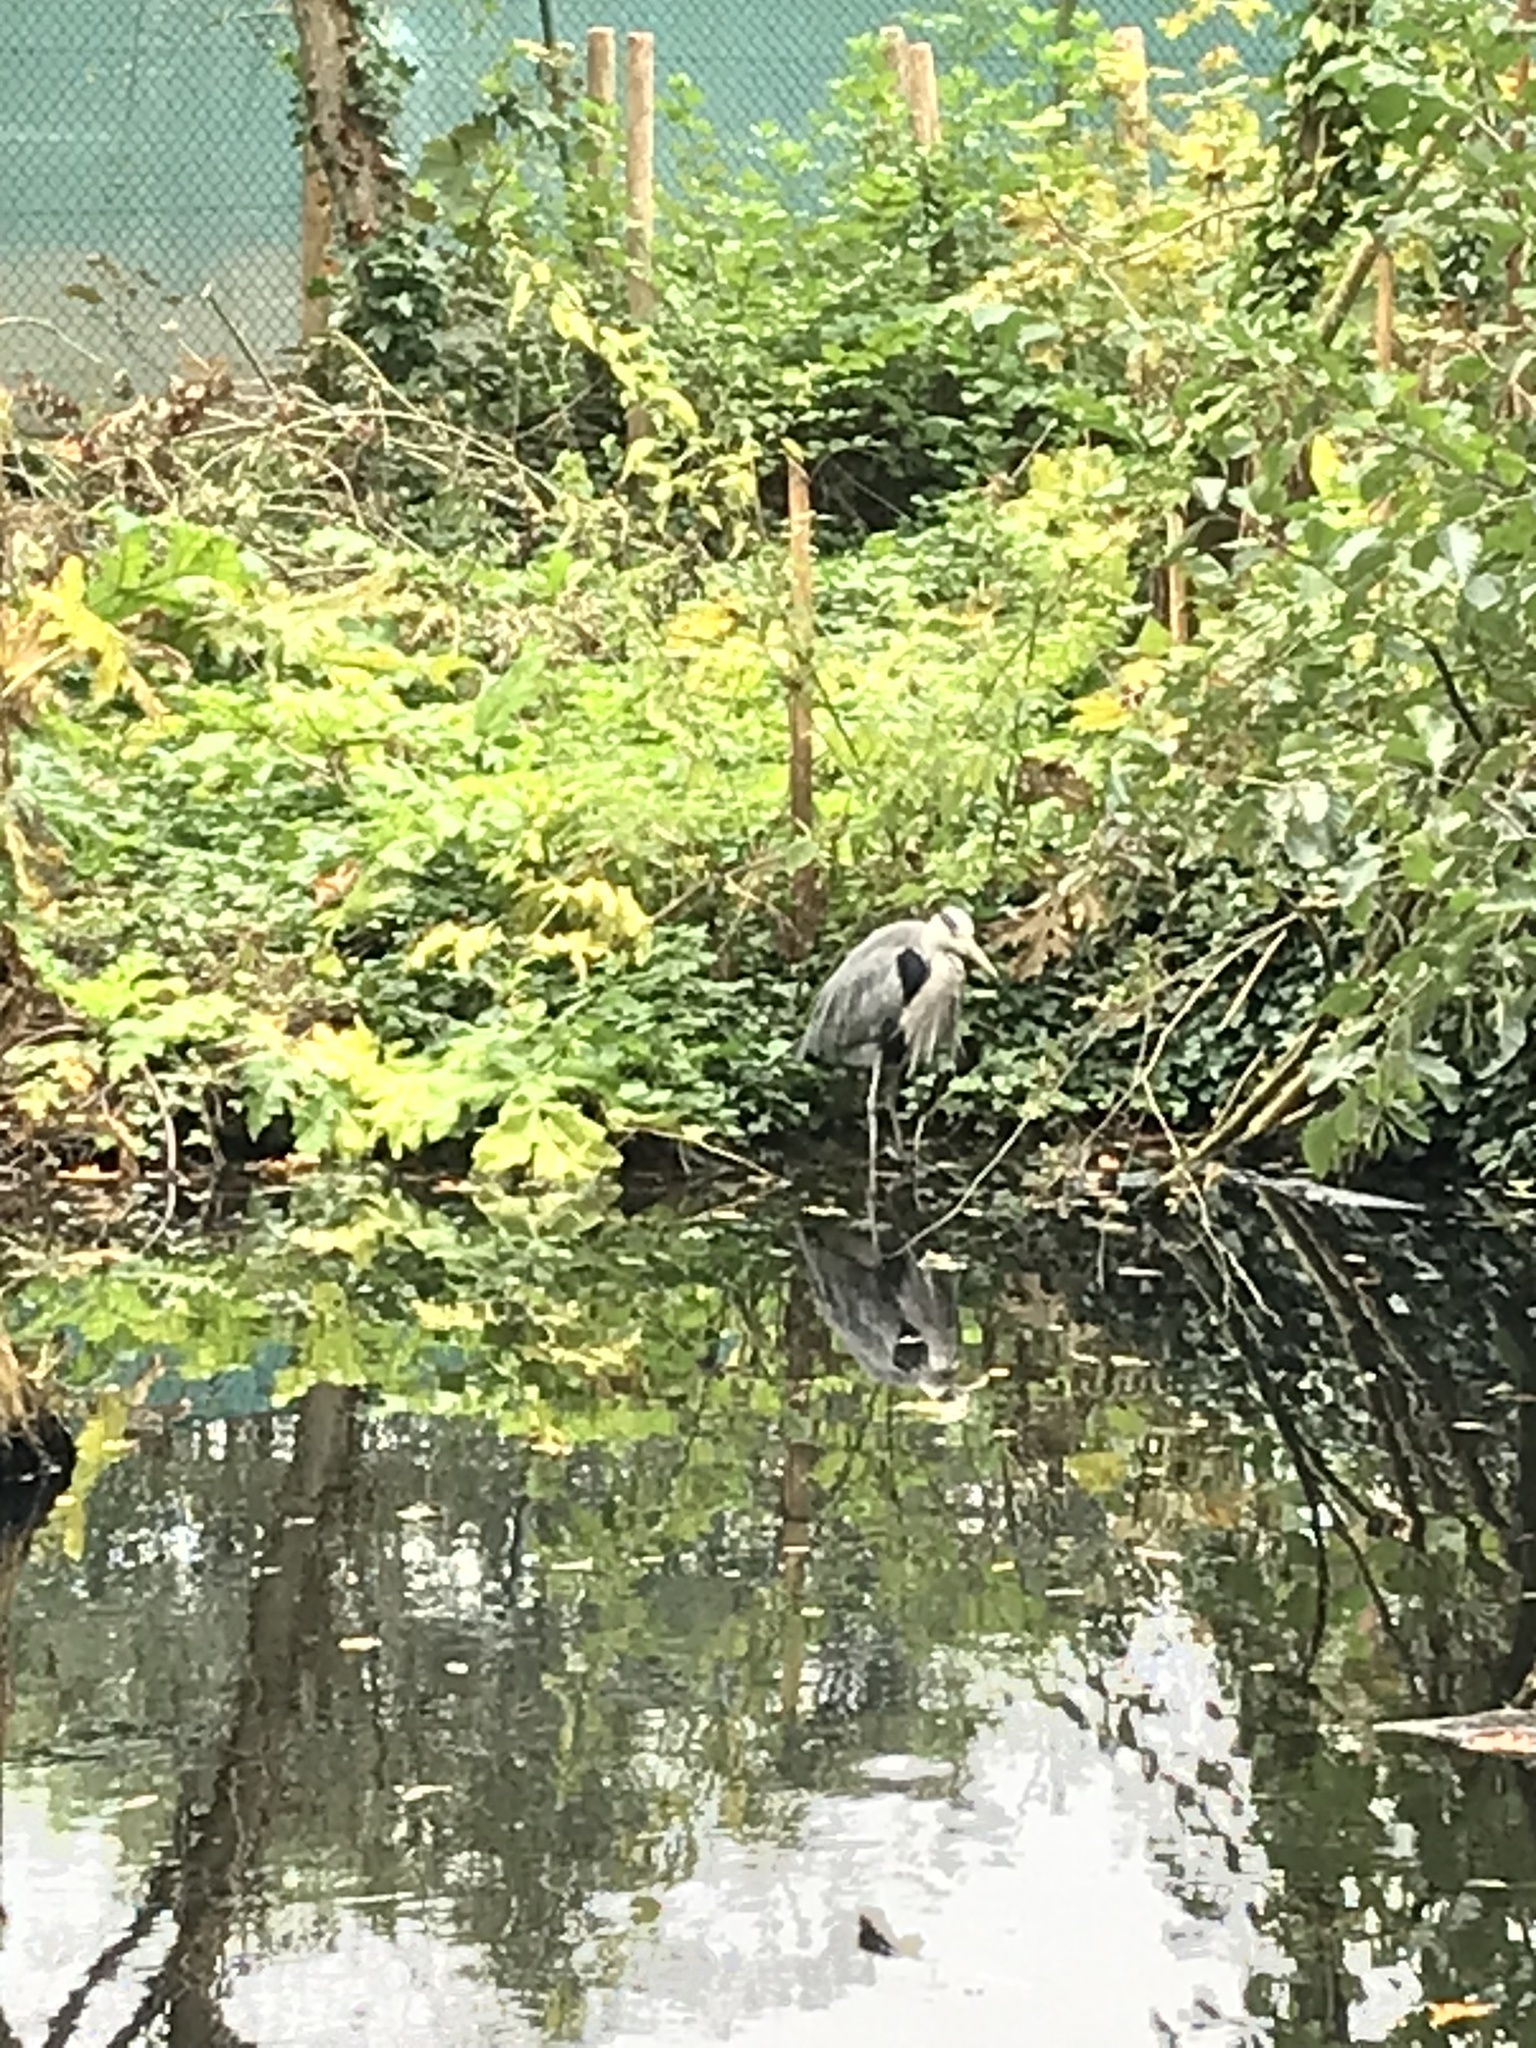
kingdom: Animalia
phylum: Chordata
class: Aves
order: Pelecaniformes
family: Ardeidae
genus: Ardea
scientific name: Ardea cinerea
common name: Grey heron
